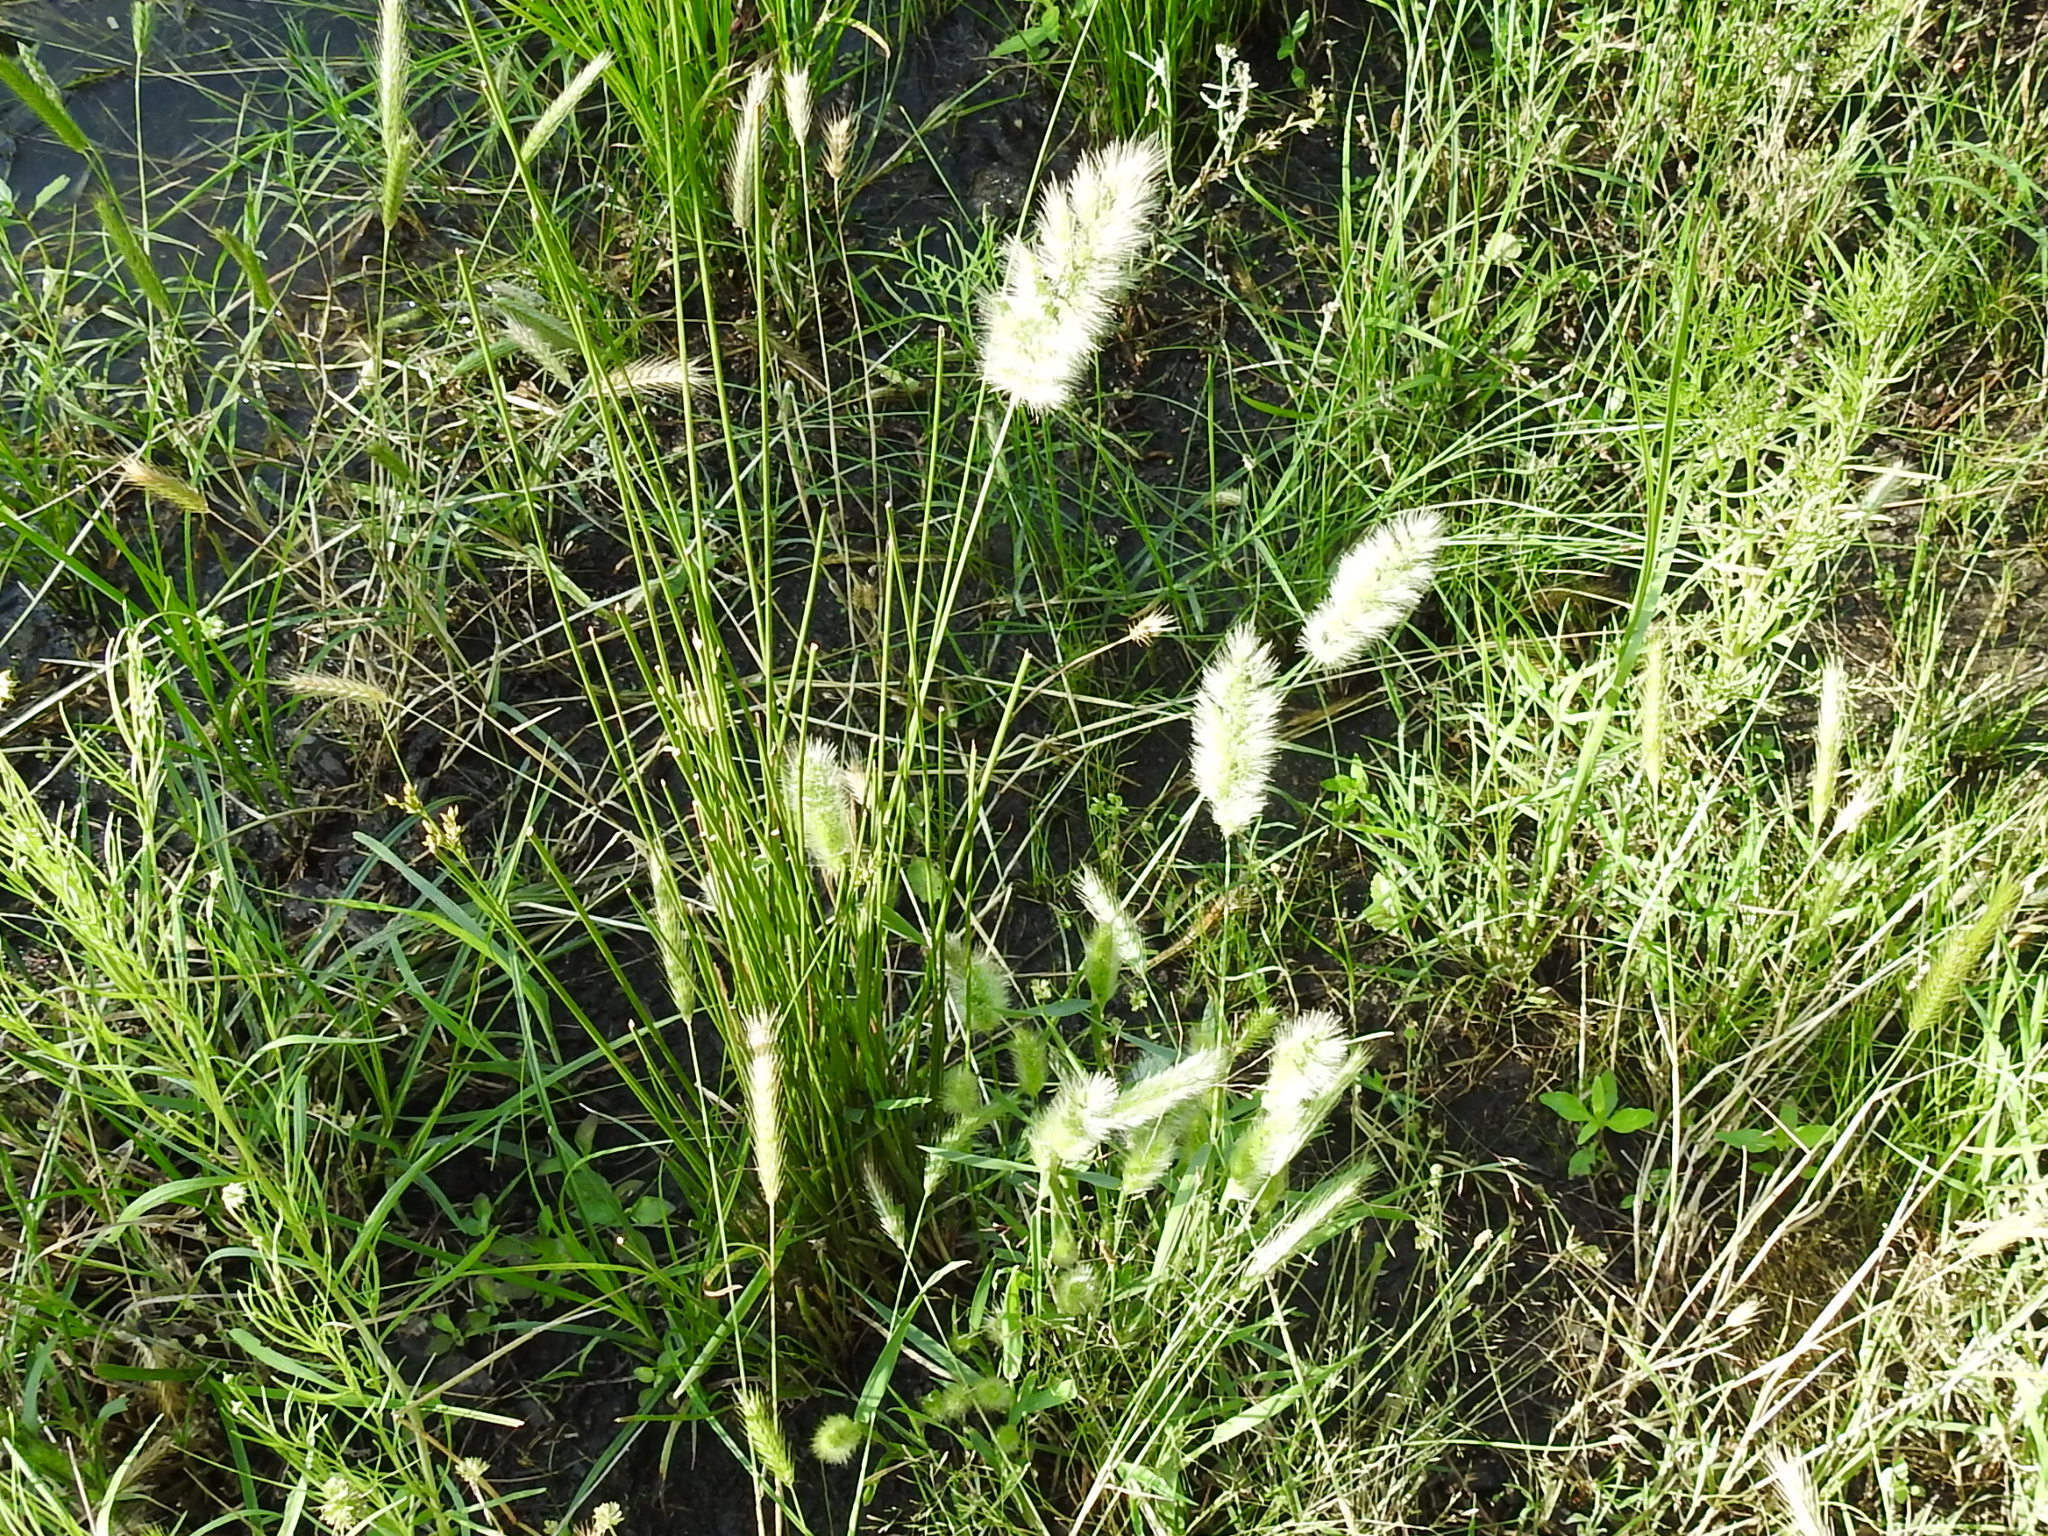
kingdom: Plantae
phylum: Tracheophyta
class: Liliopsida
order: Poales
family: Poaceae
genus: Polypogon
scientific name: Polypogon monspeliensis
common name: Annual rabbitsfoot grass
